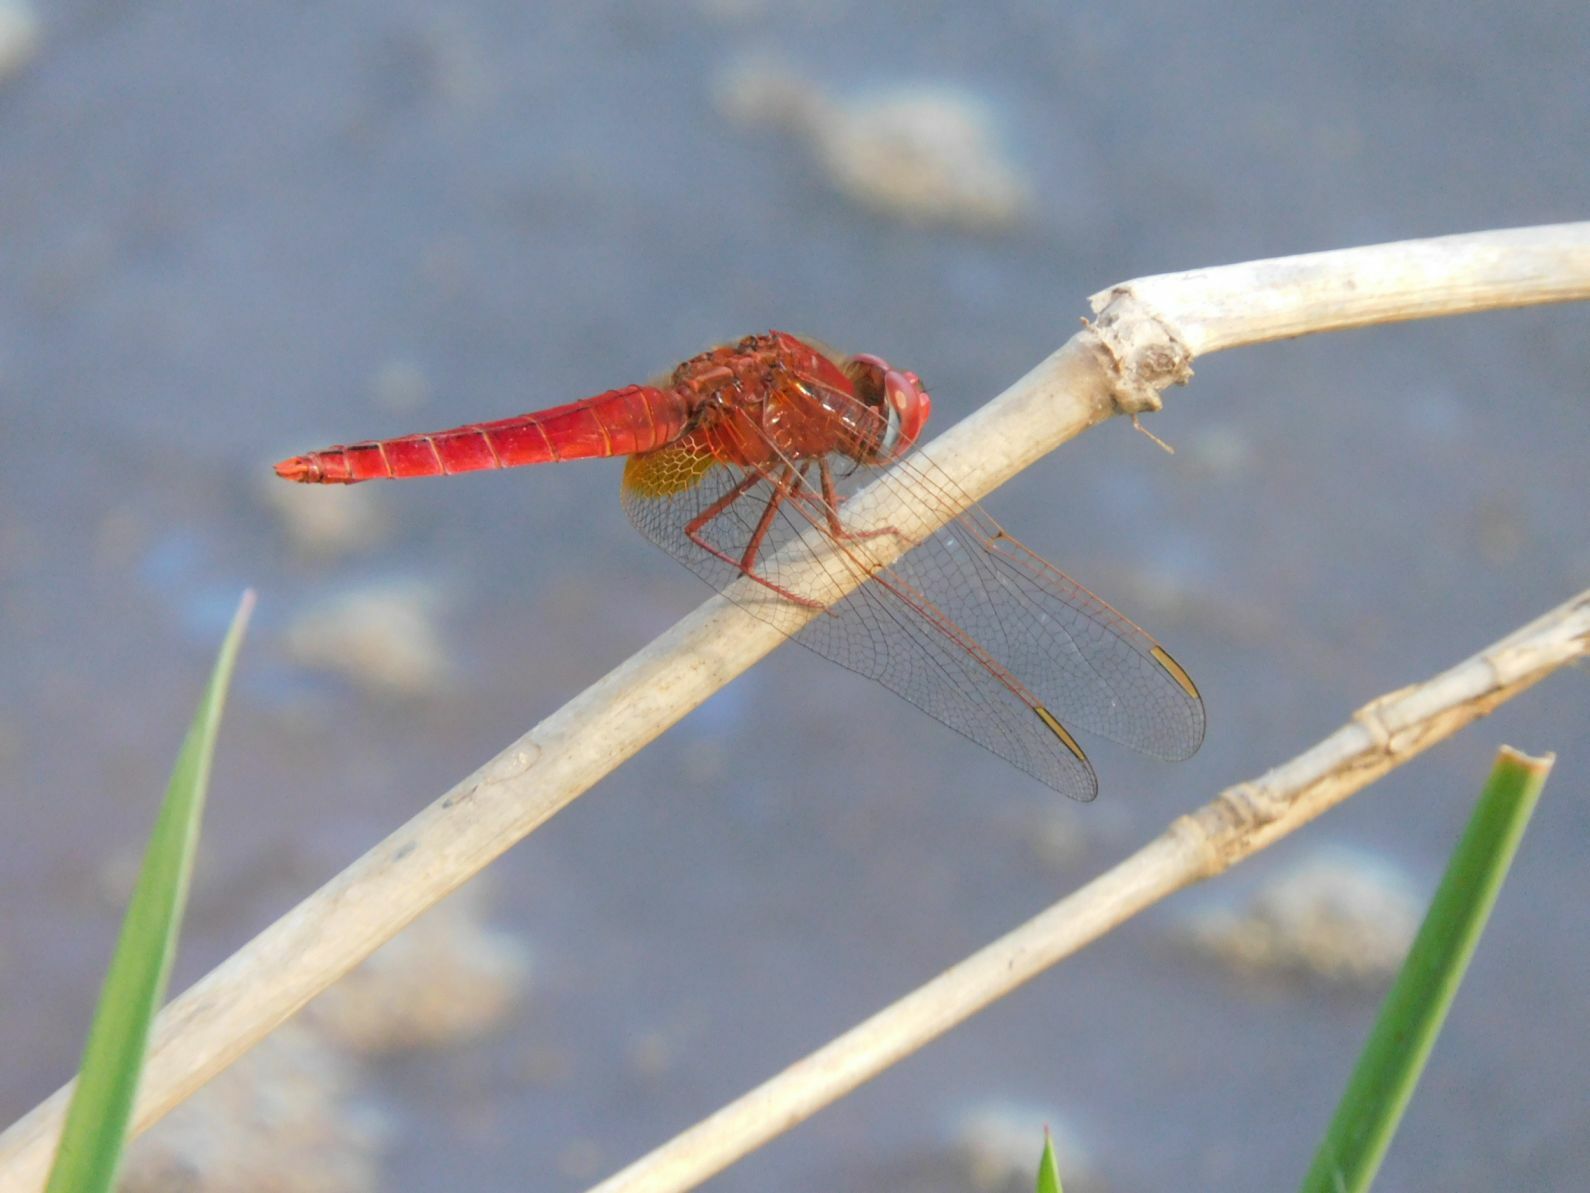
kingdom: Animalia
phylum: Arthropoda
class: Insecta
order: Odonata
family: Libellulidae
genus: Crocothemis
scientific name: Crocothemis erythraea
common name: Scarlet dragonfly
